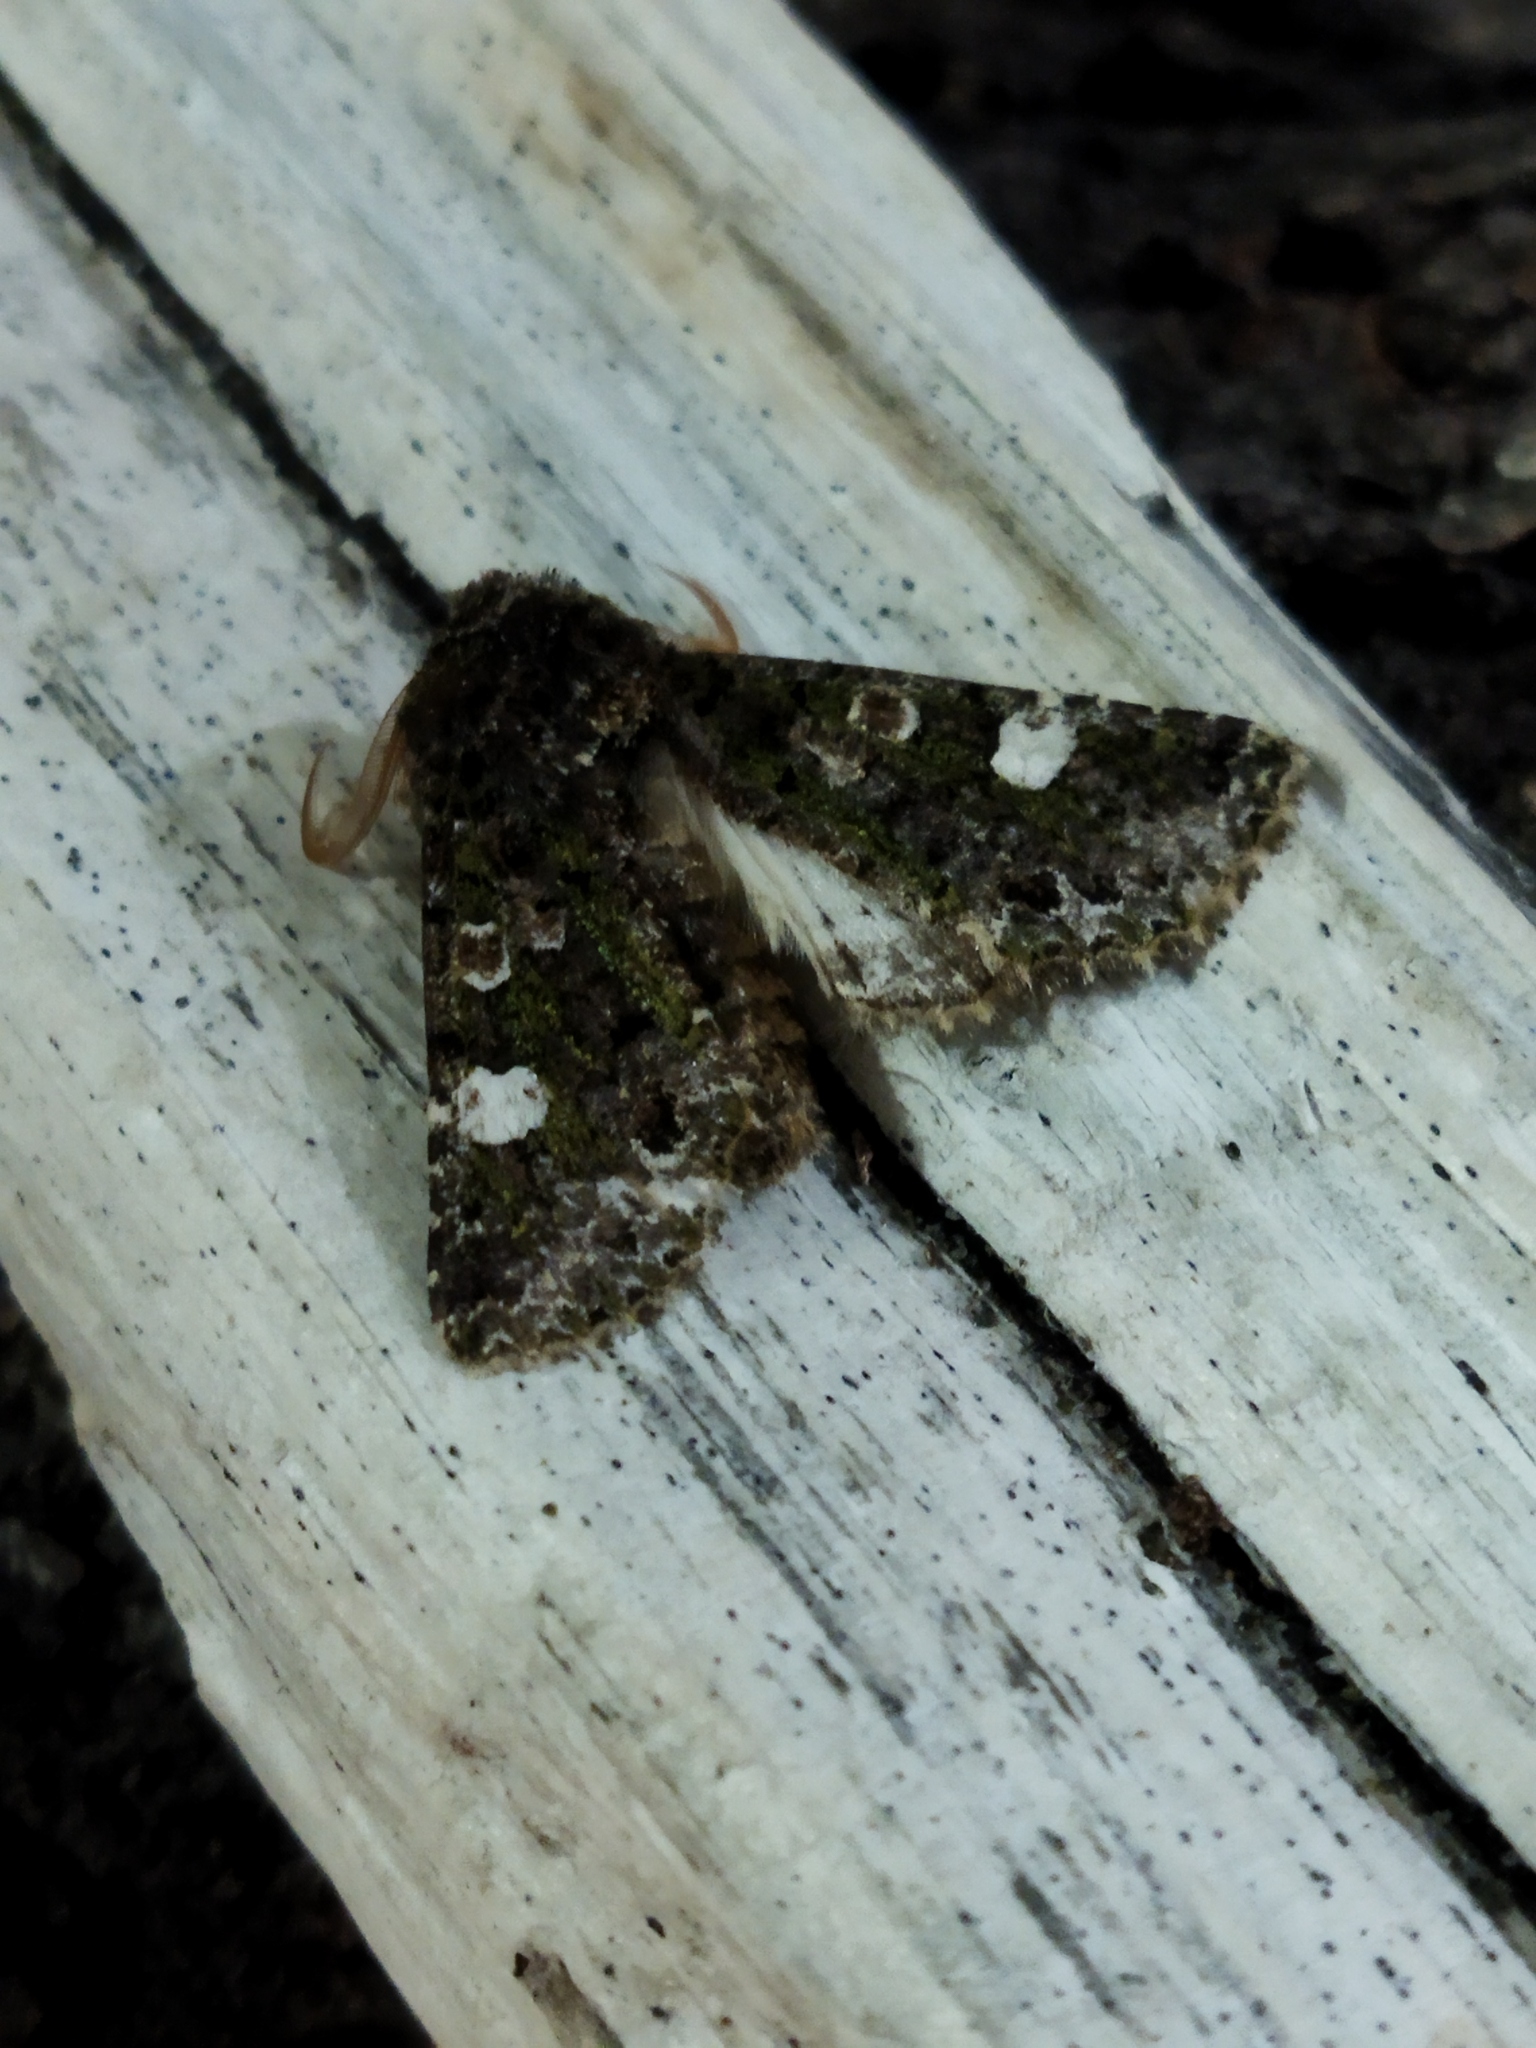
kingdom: Animalia
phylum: Arthropoda
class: Insecta
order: Lepidoptera
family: Noctuidae
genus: Valeria
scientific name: Valeria oleagina
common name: Green-brindled dot
